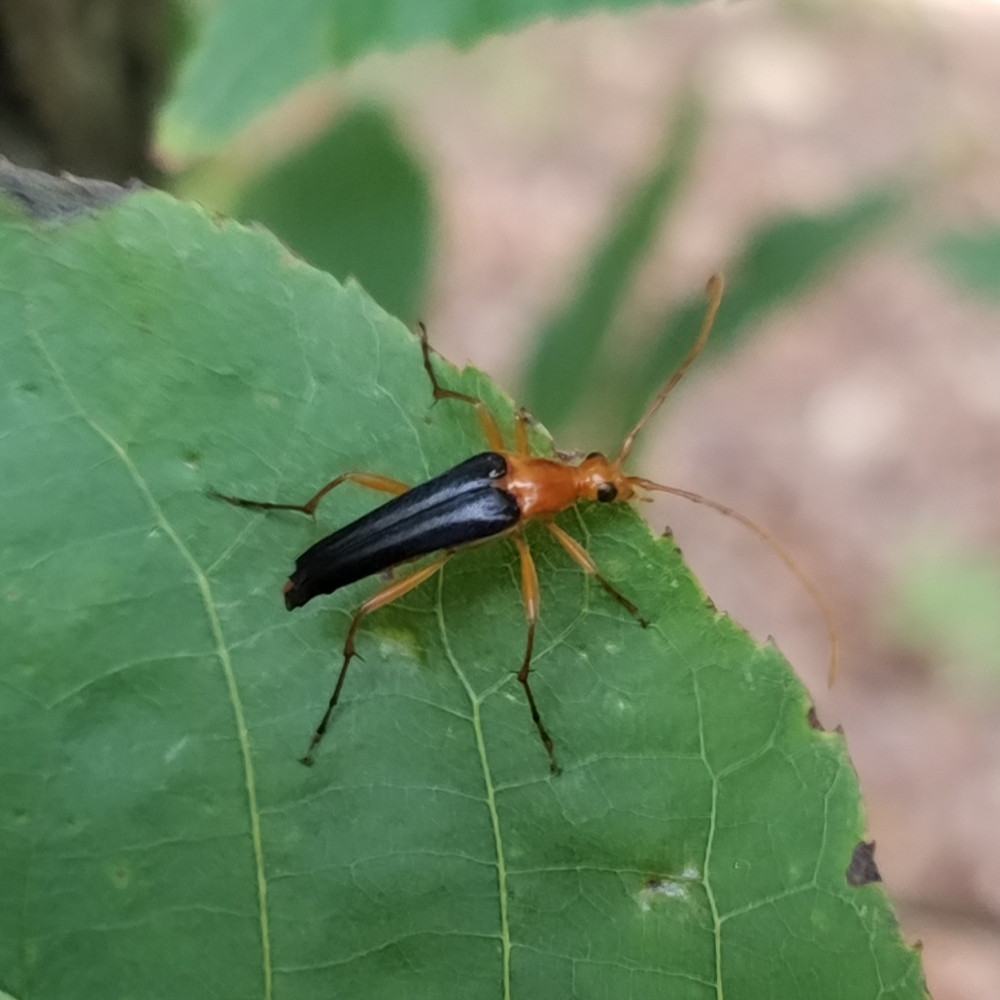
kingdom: Animalia
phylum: Arthropoda
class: Insecta
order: Coleoptera
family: Cerambycidae
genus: Strangalia
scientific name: Strangalia bicolor
